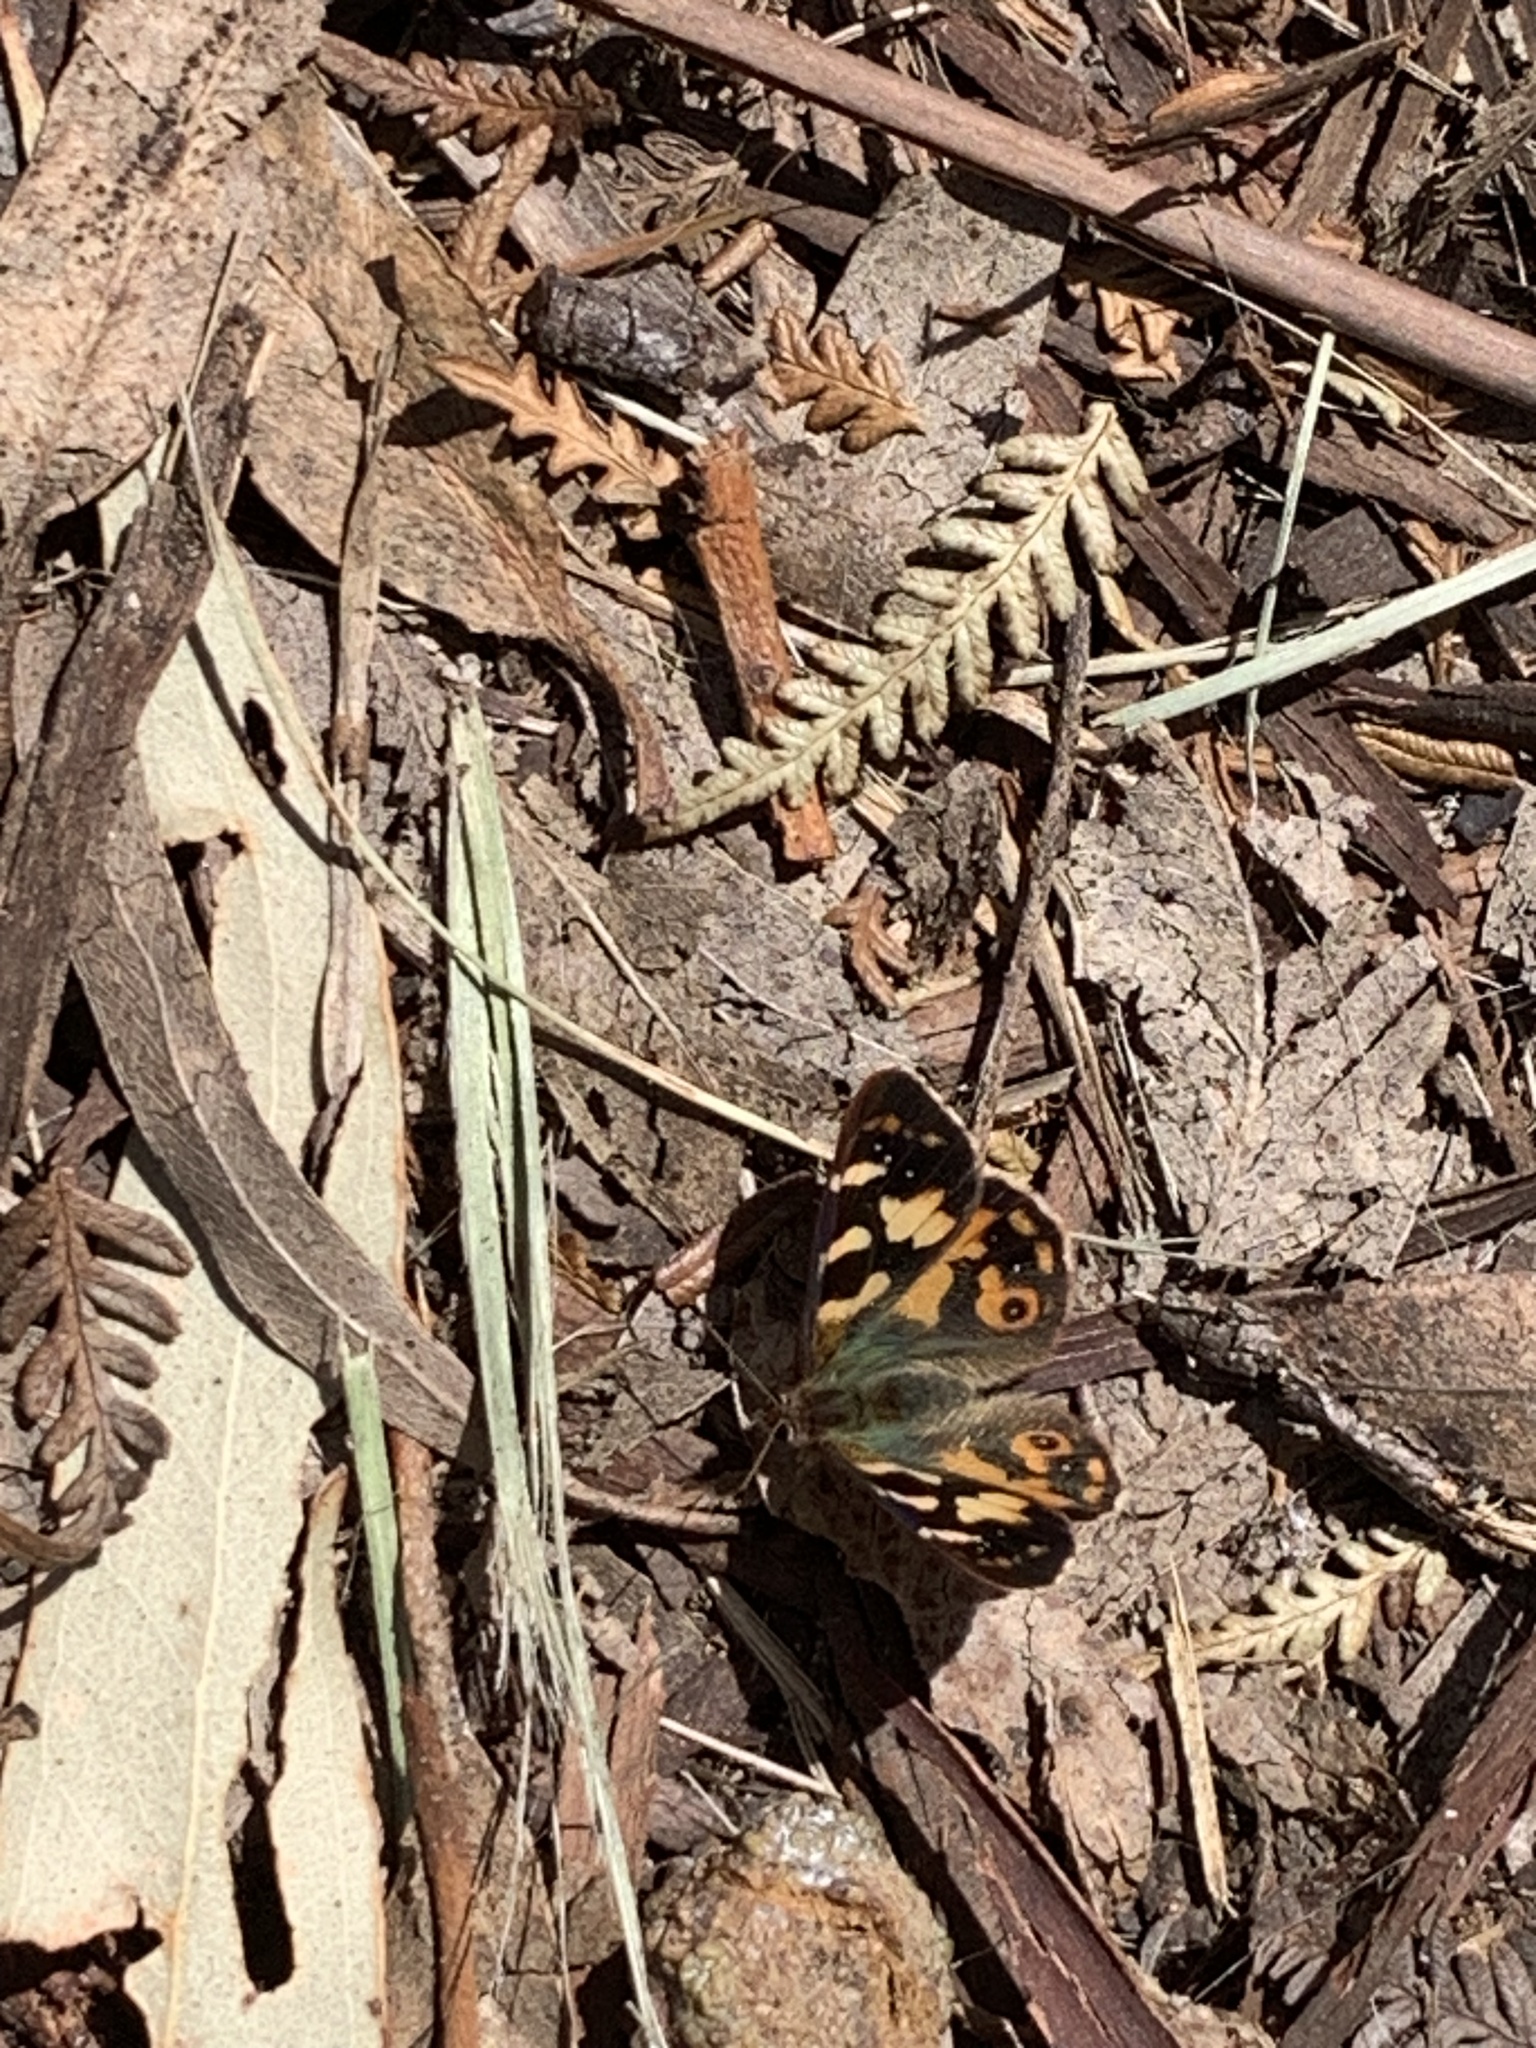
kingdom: Animalia
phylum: Arthropoda
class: Insecta
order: Lepidoptera
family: Nymphalidae
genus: Argynnina
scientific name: Argynnina hobartia
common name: Hobart brown
